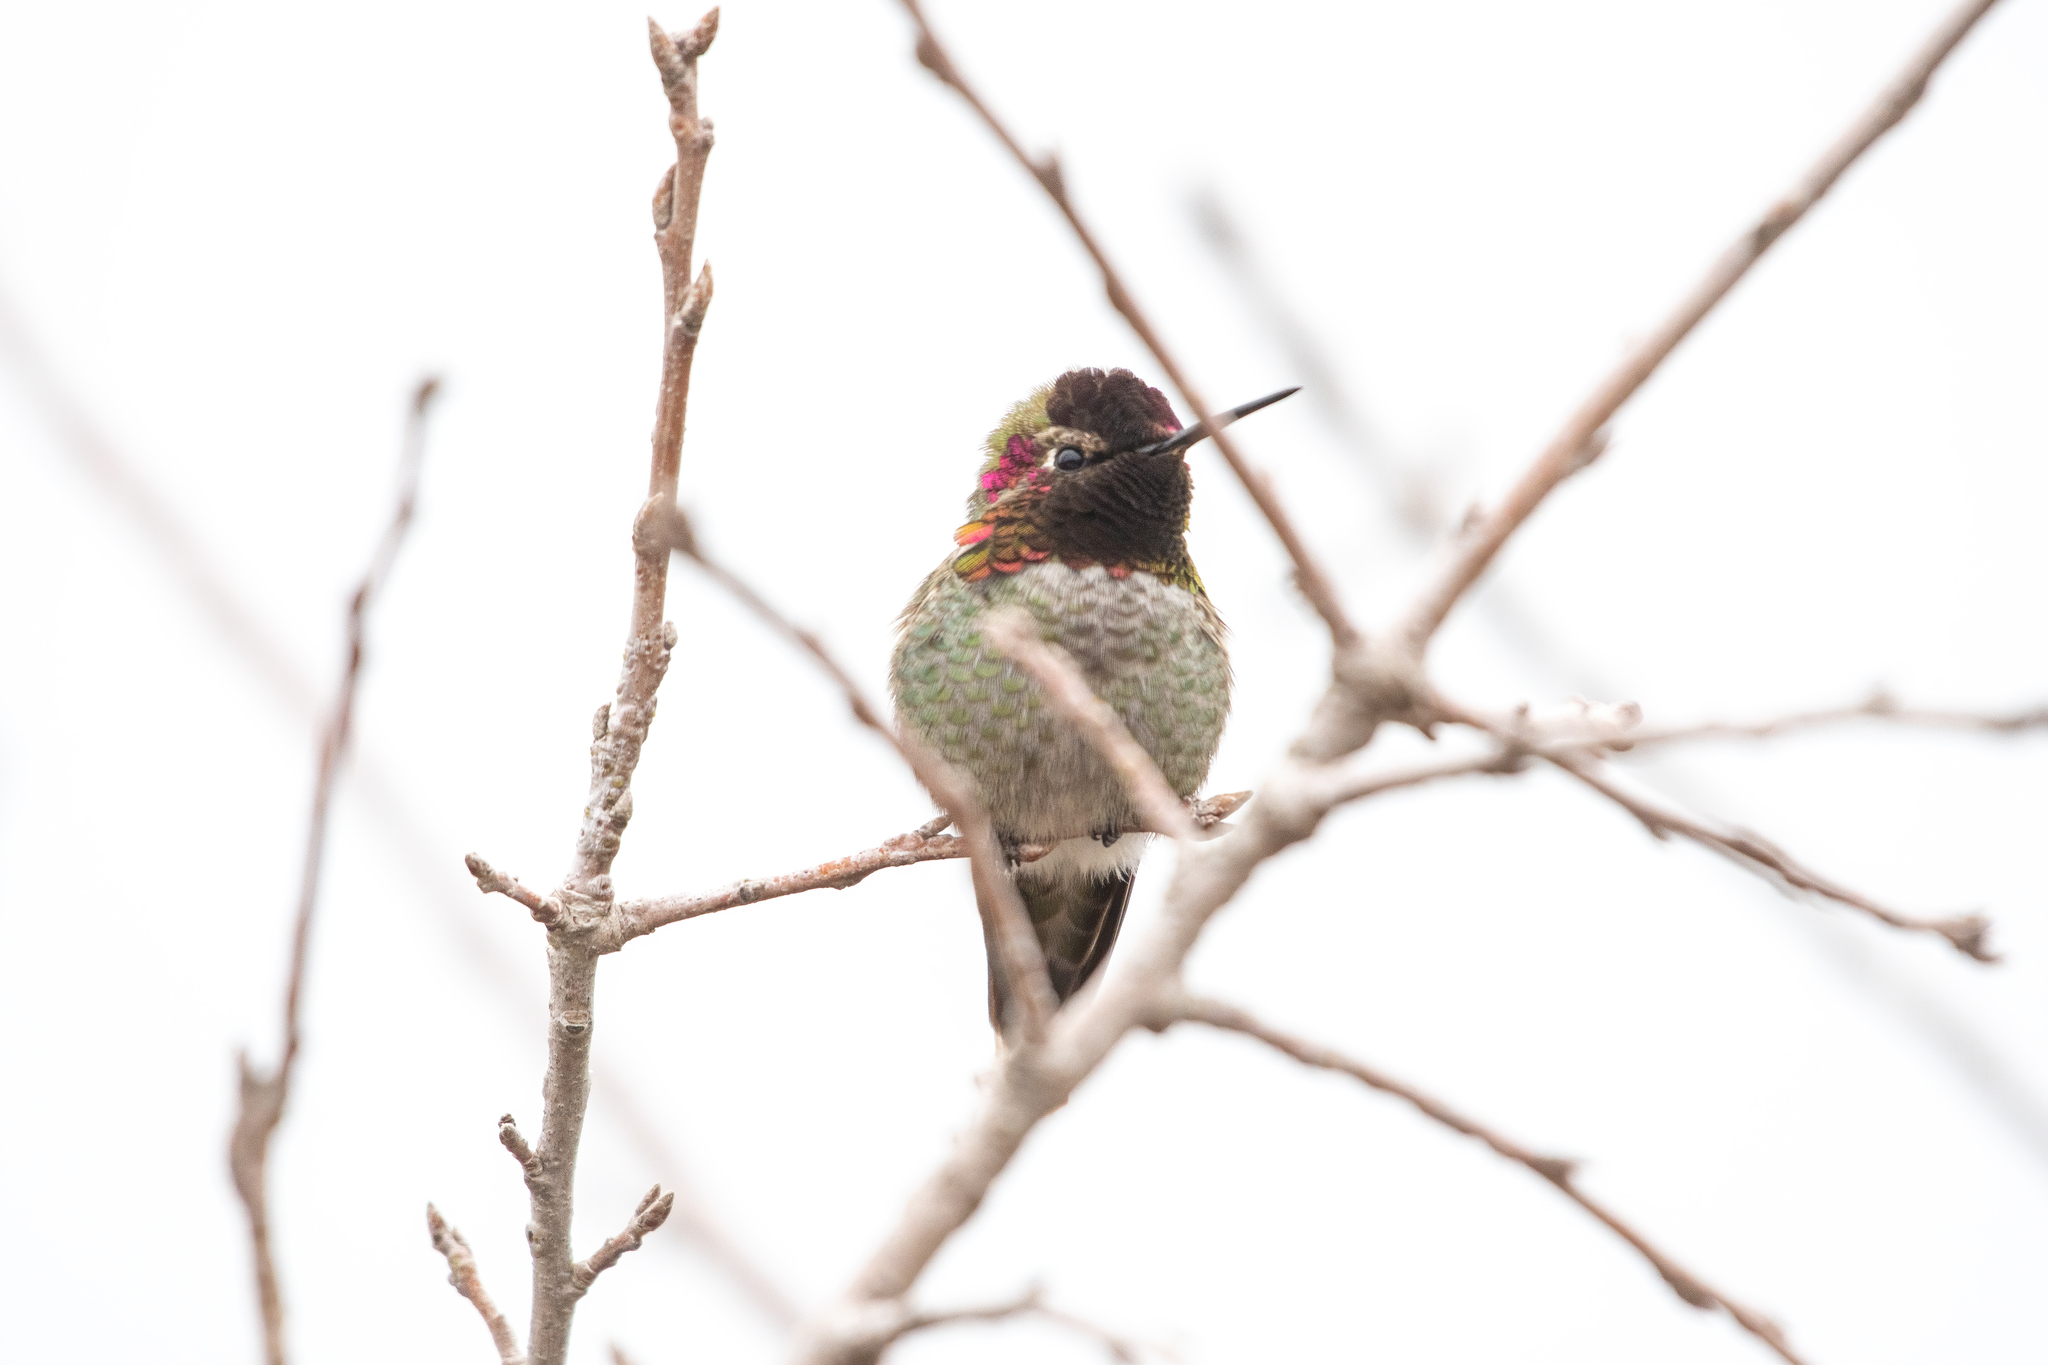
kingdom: Animalia
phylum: Chordata
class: Aves
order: Apodiformes
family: Trochilidae
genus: Calypte
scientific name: Calypte anna
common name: Anna's hummingbird
